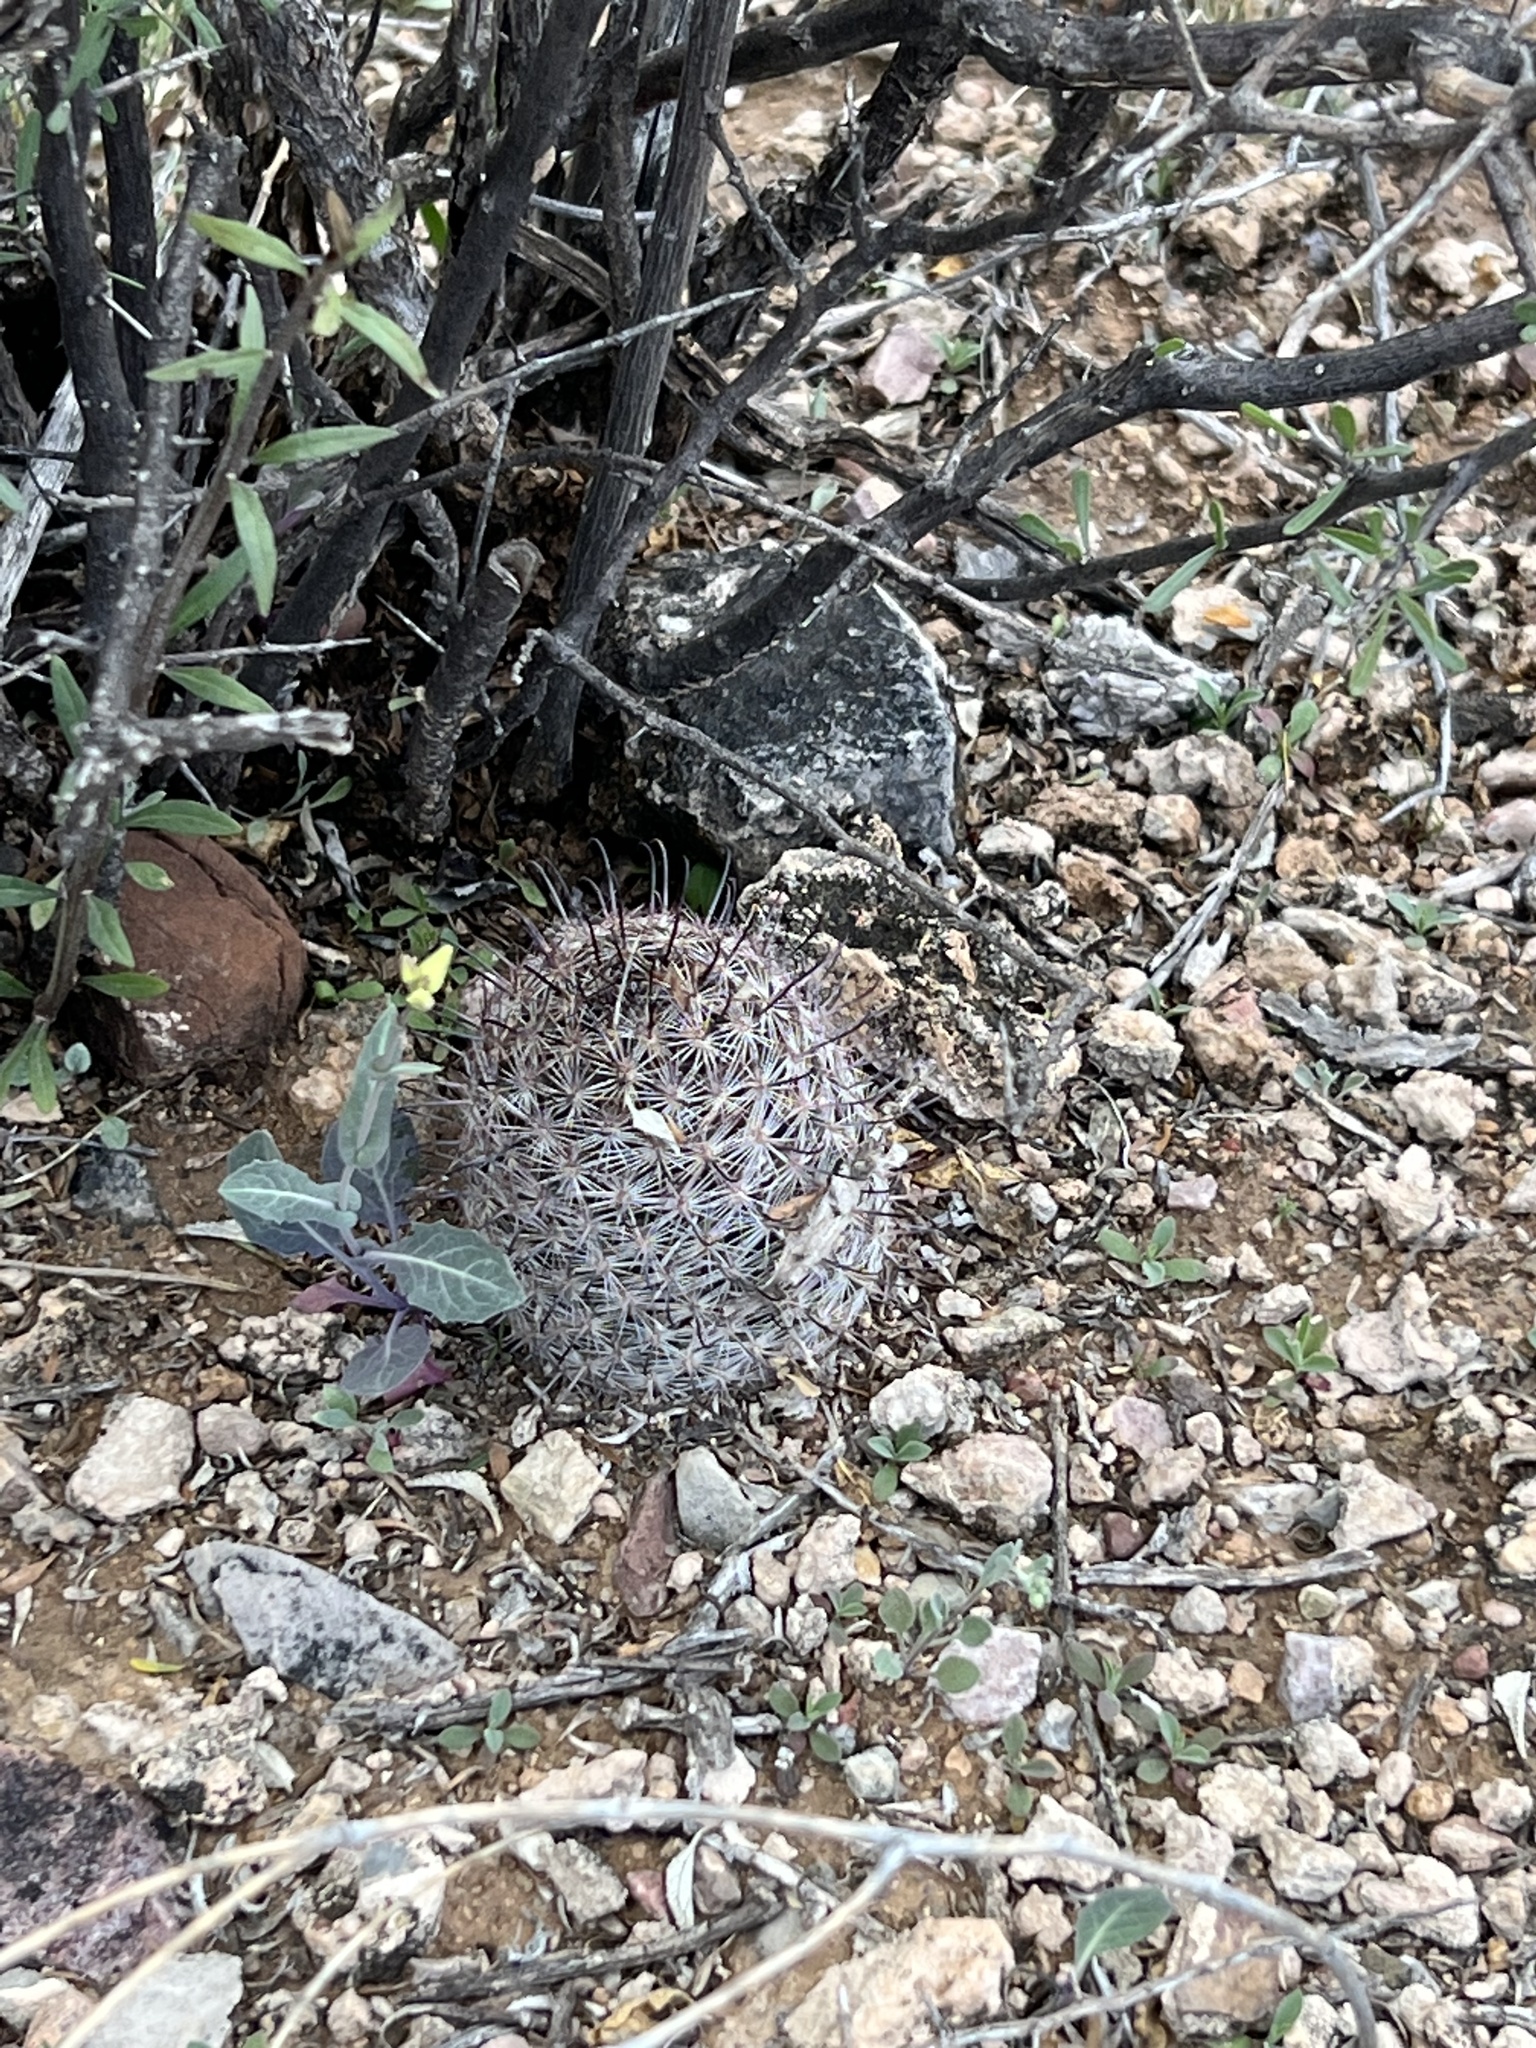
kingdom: Plantae
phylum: Tracheophyta
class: Magnoliopsida
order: Caryophyllales
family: Cactaceae
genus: Cochemiea
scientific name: Cochemiea grahamii
